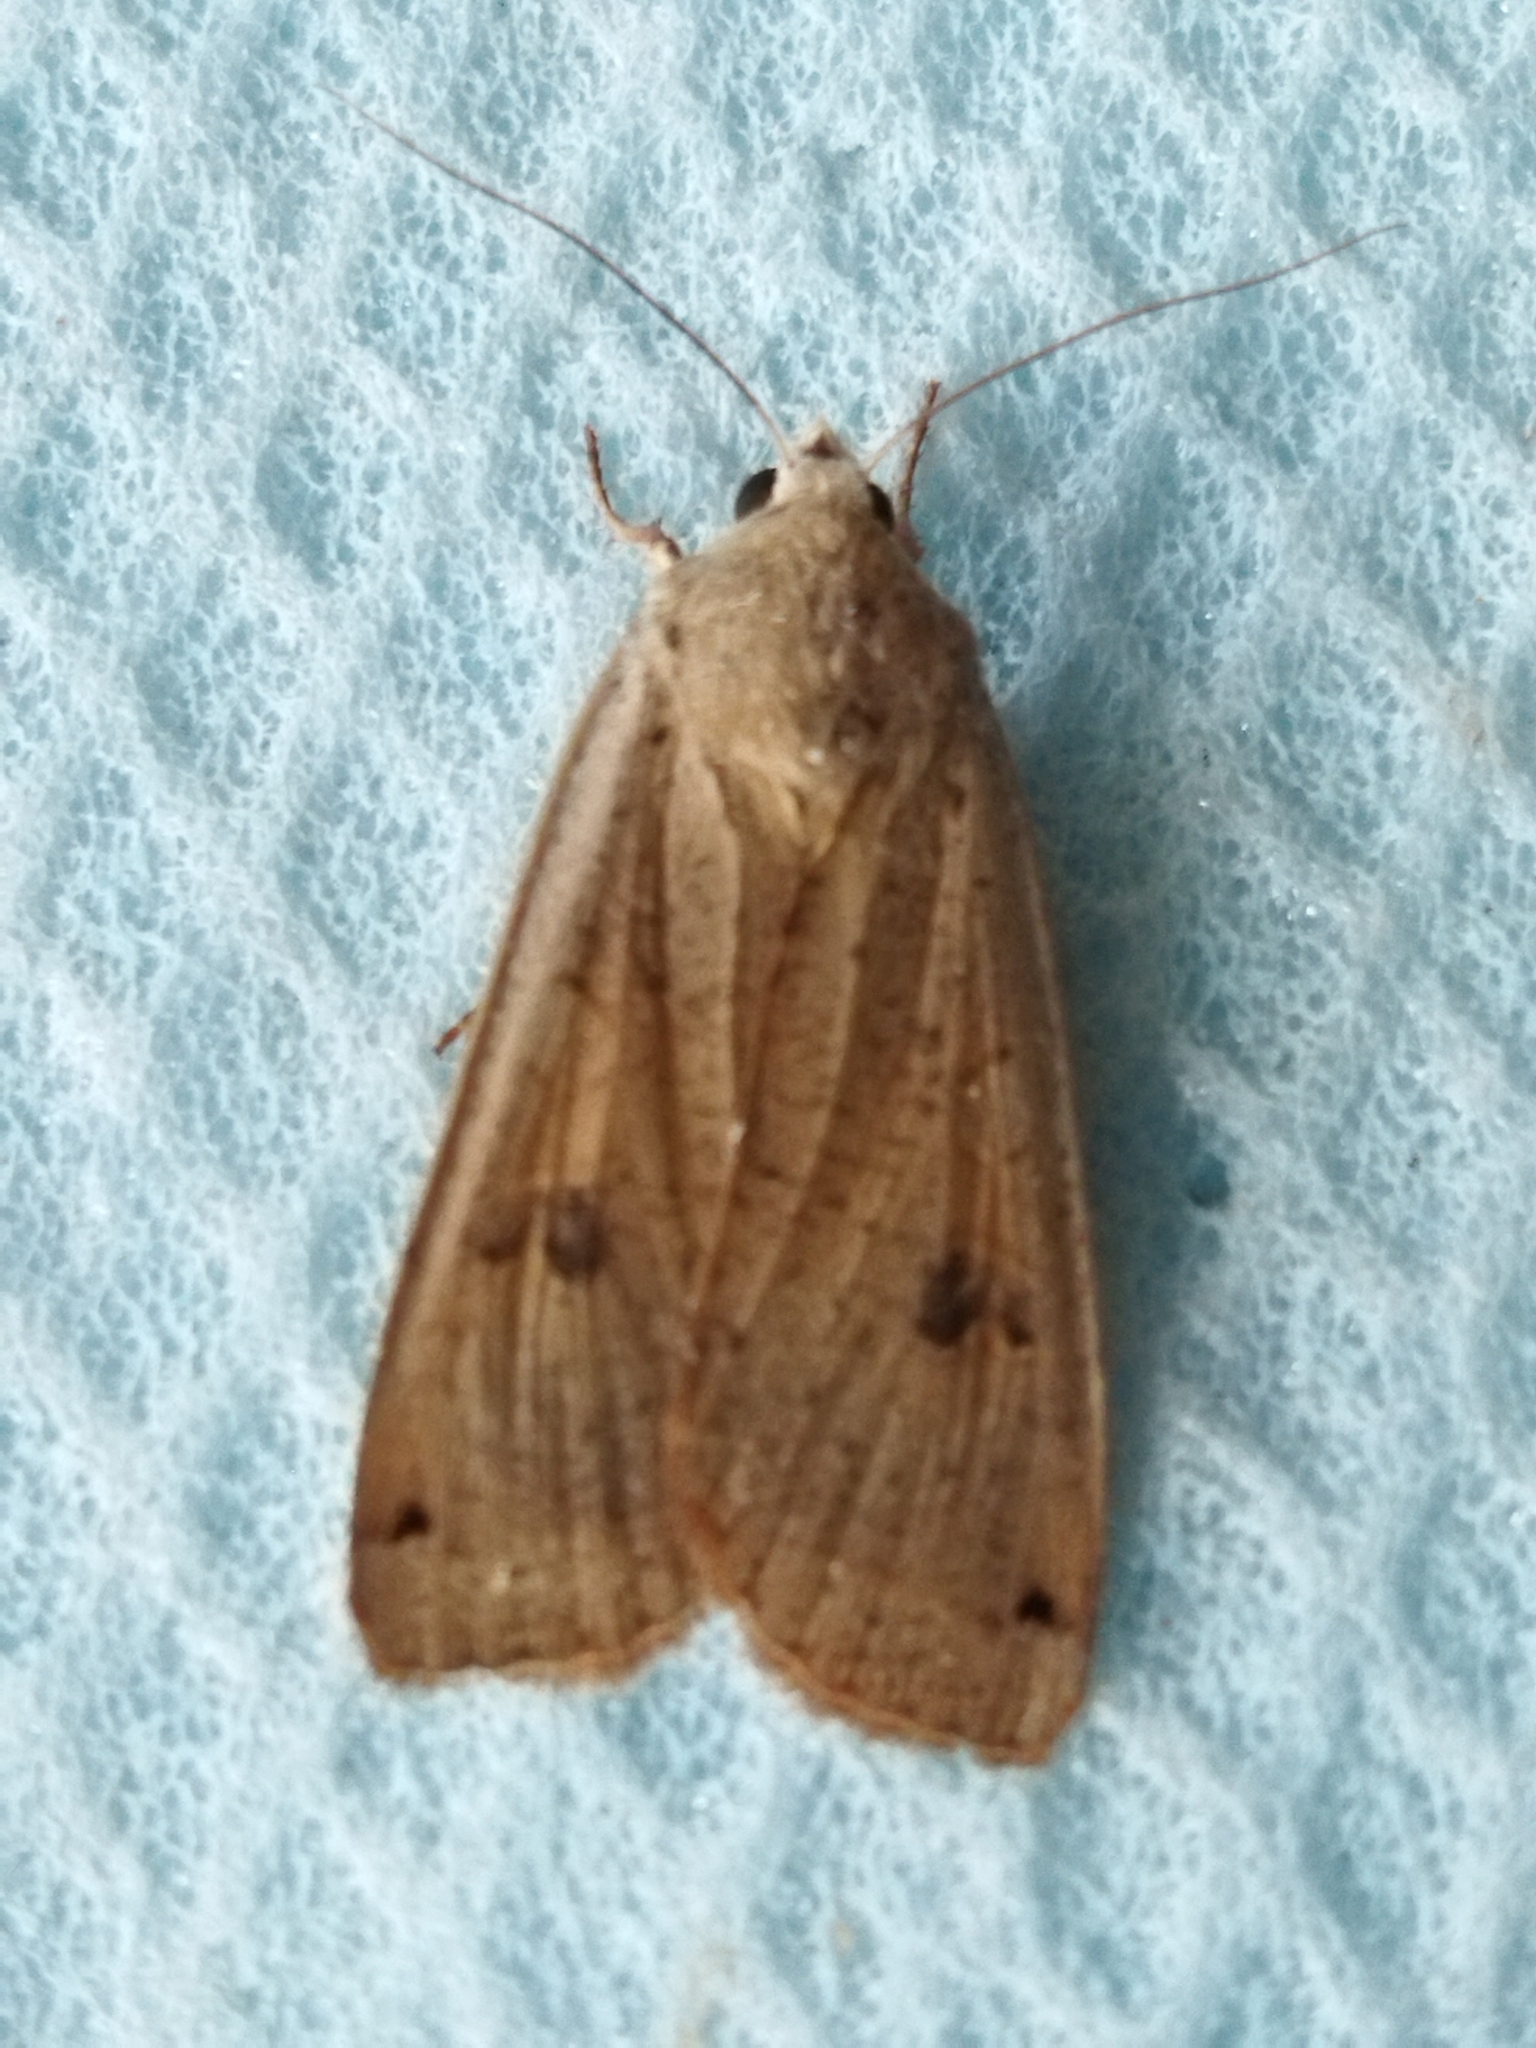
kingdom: Animalia
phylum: Arthropoda
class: Insecta
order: Lepidoptera
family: Noctuidae
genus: Noctua
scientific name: Noctua pronuba
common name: Large yellow underwing
